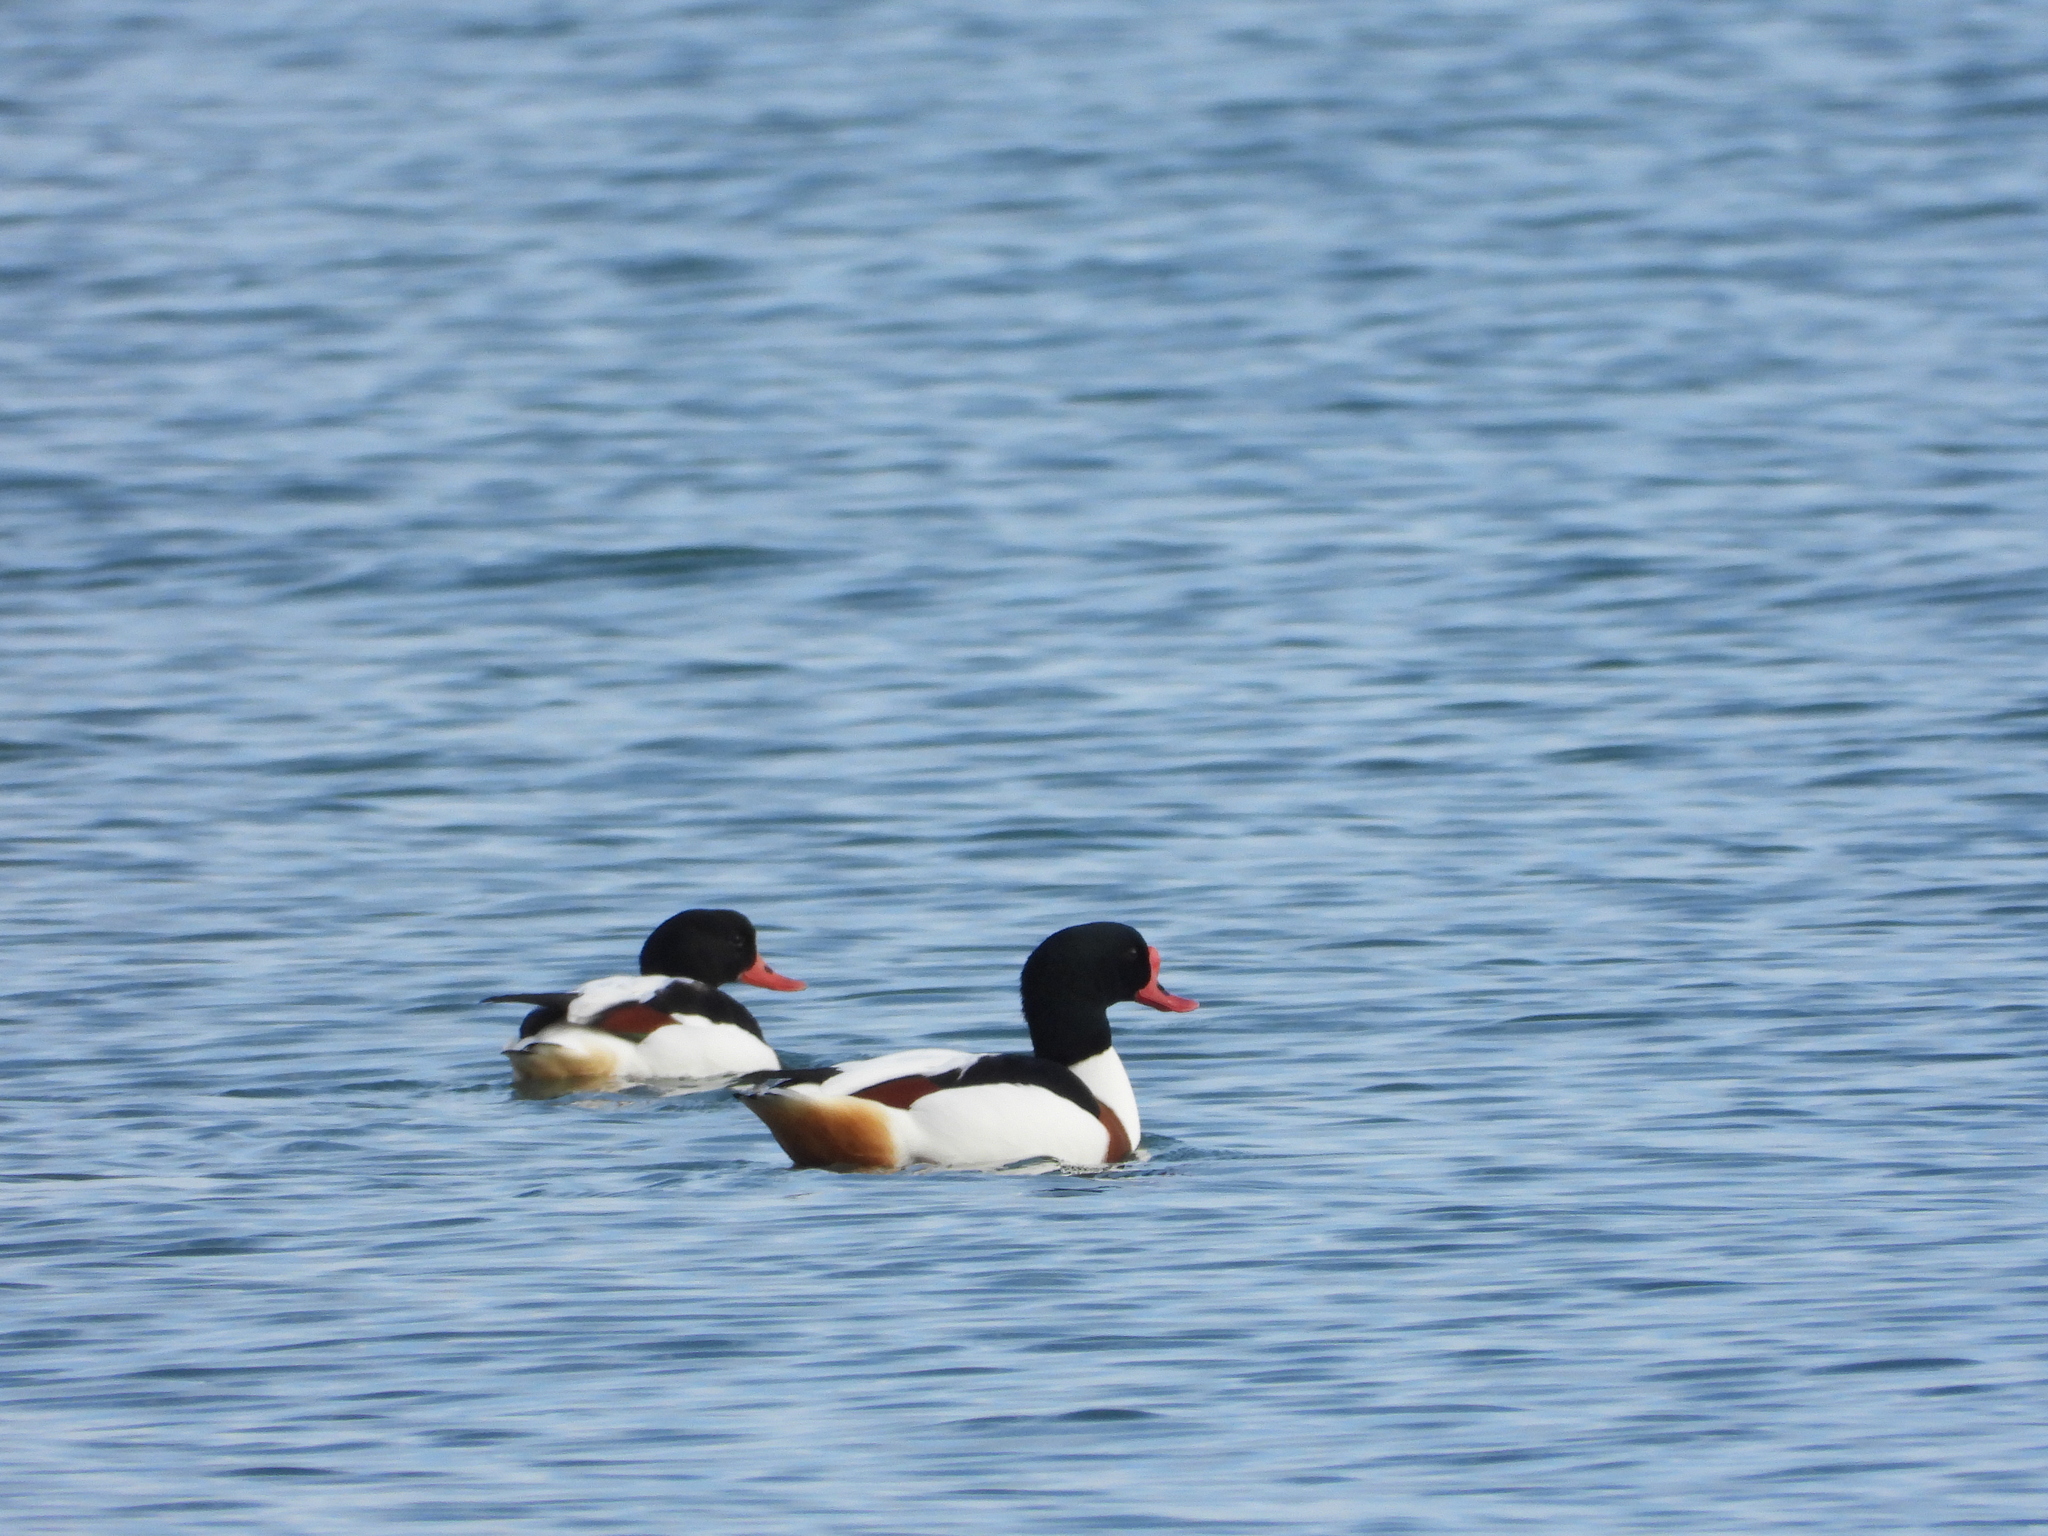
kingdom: Animalia
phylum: Chordata
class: Aves
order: Anseriformes
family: Anatidae
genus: Tadorna
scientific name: Tadorna tadorna
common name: Common shelduck
